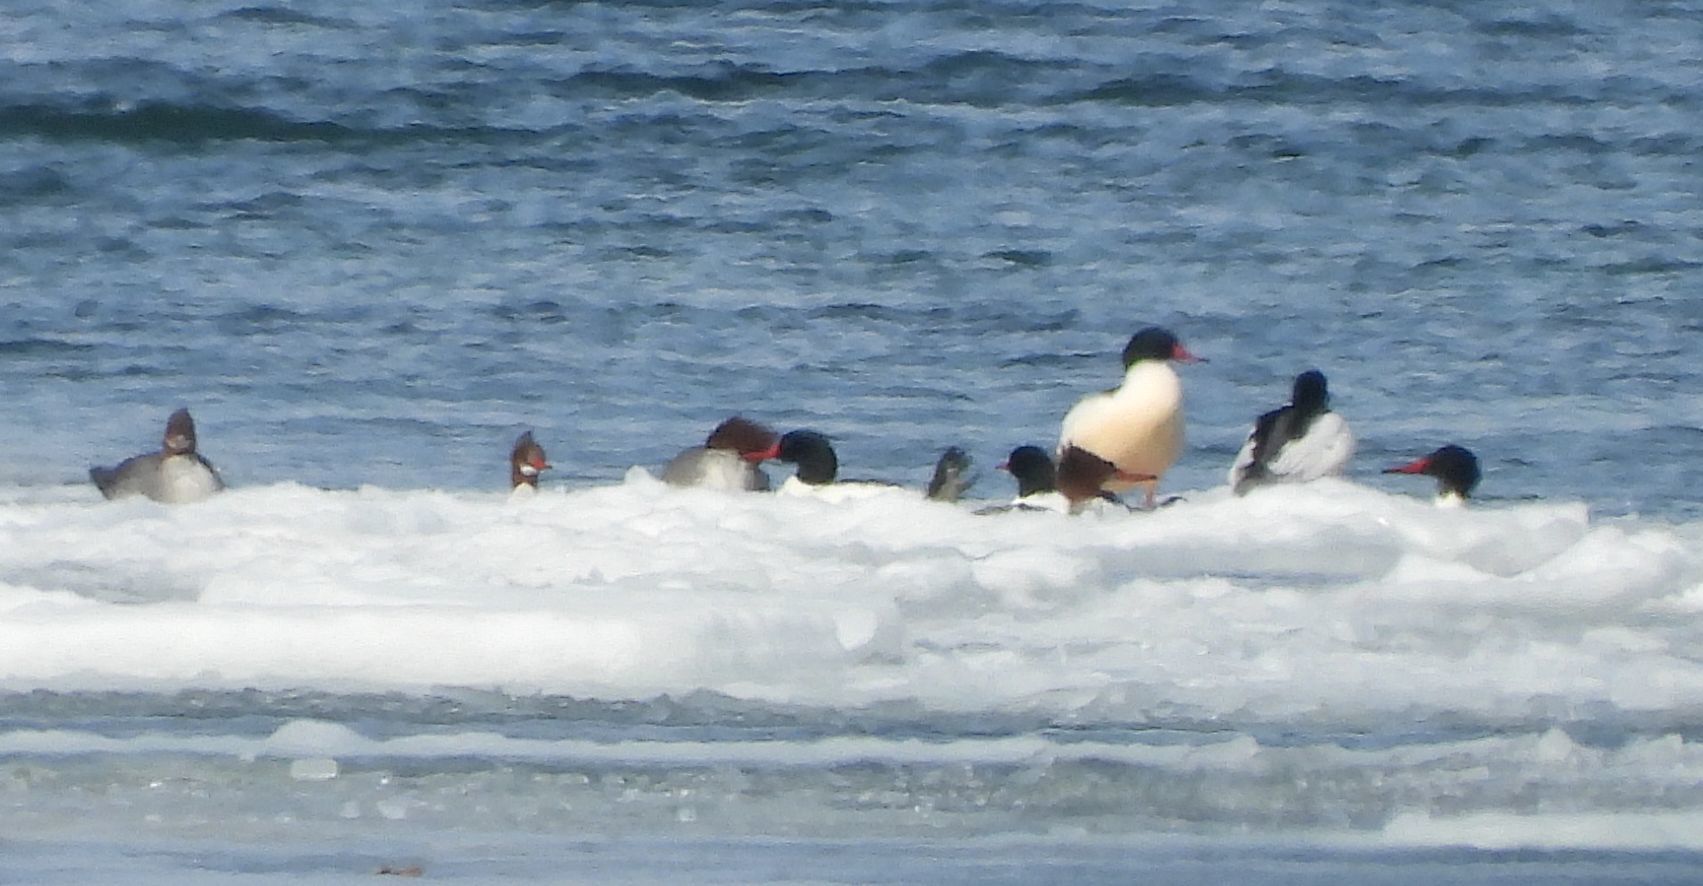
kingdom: Animalia
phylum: Chordata
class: Aves
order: Anseriformes
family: Anatidae
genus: Mergus
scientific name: Mergus merganser
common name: Common merganser
